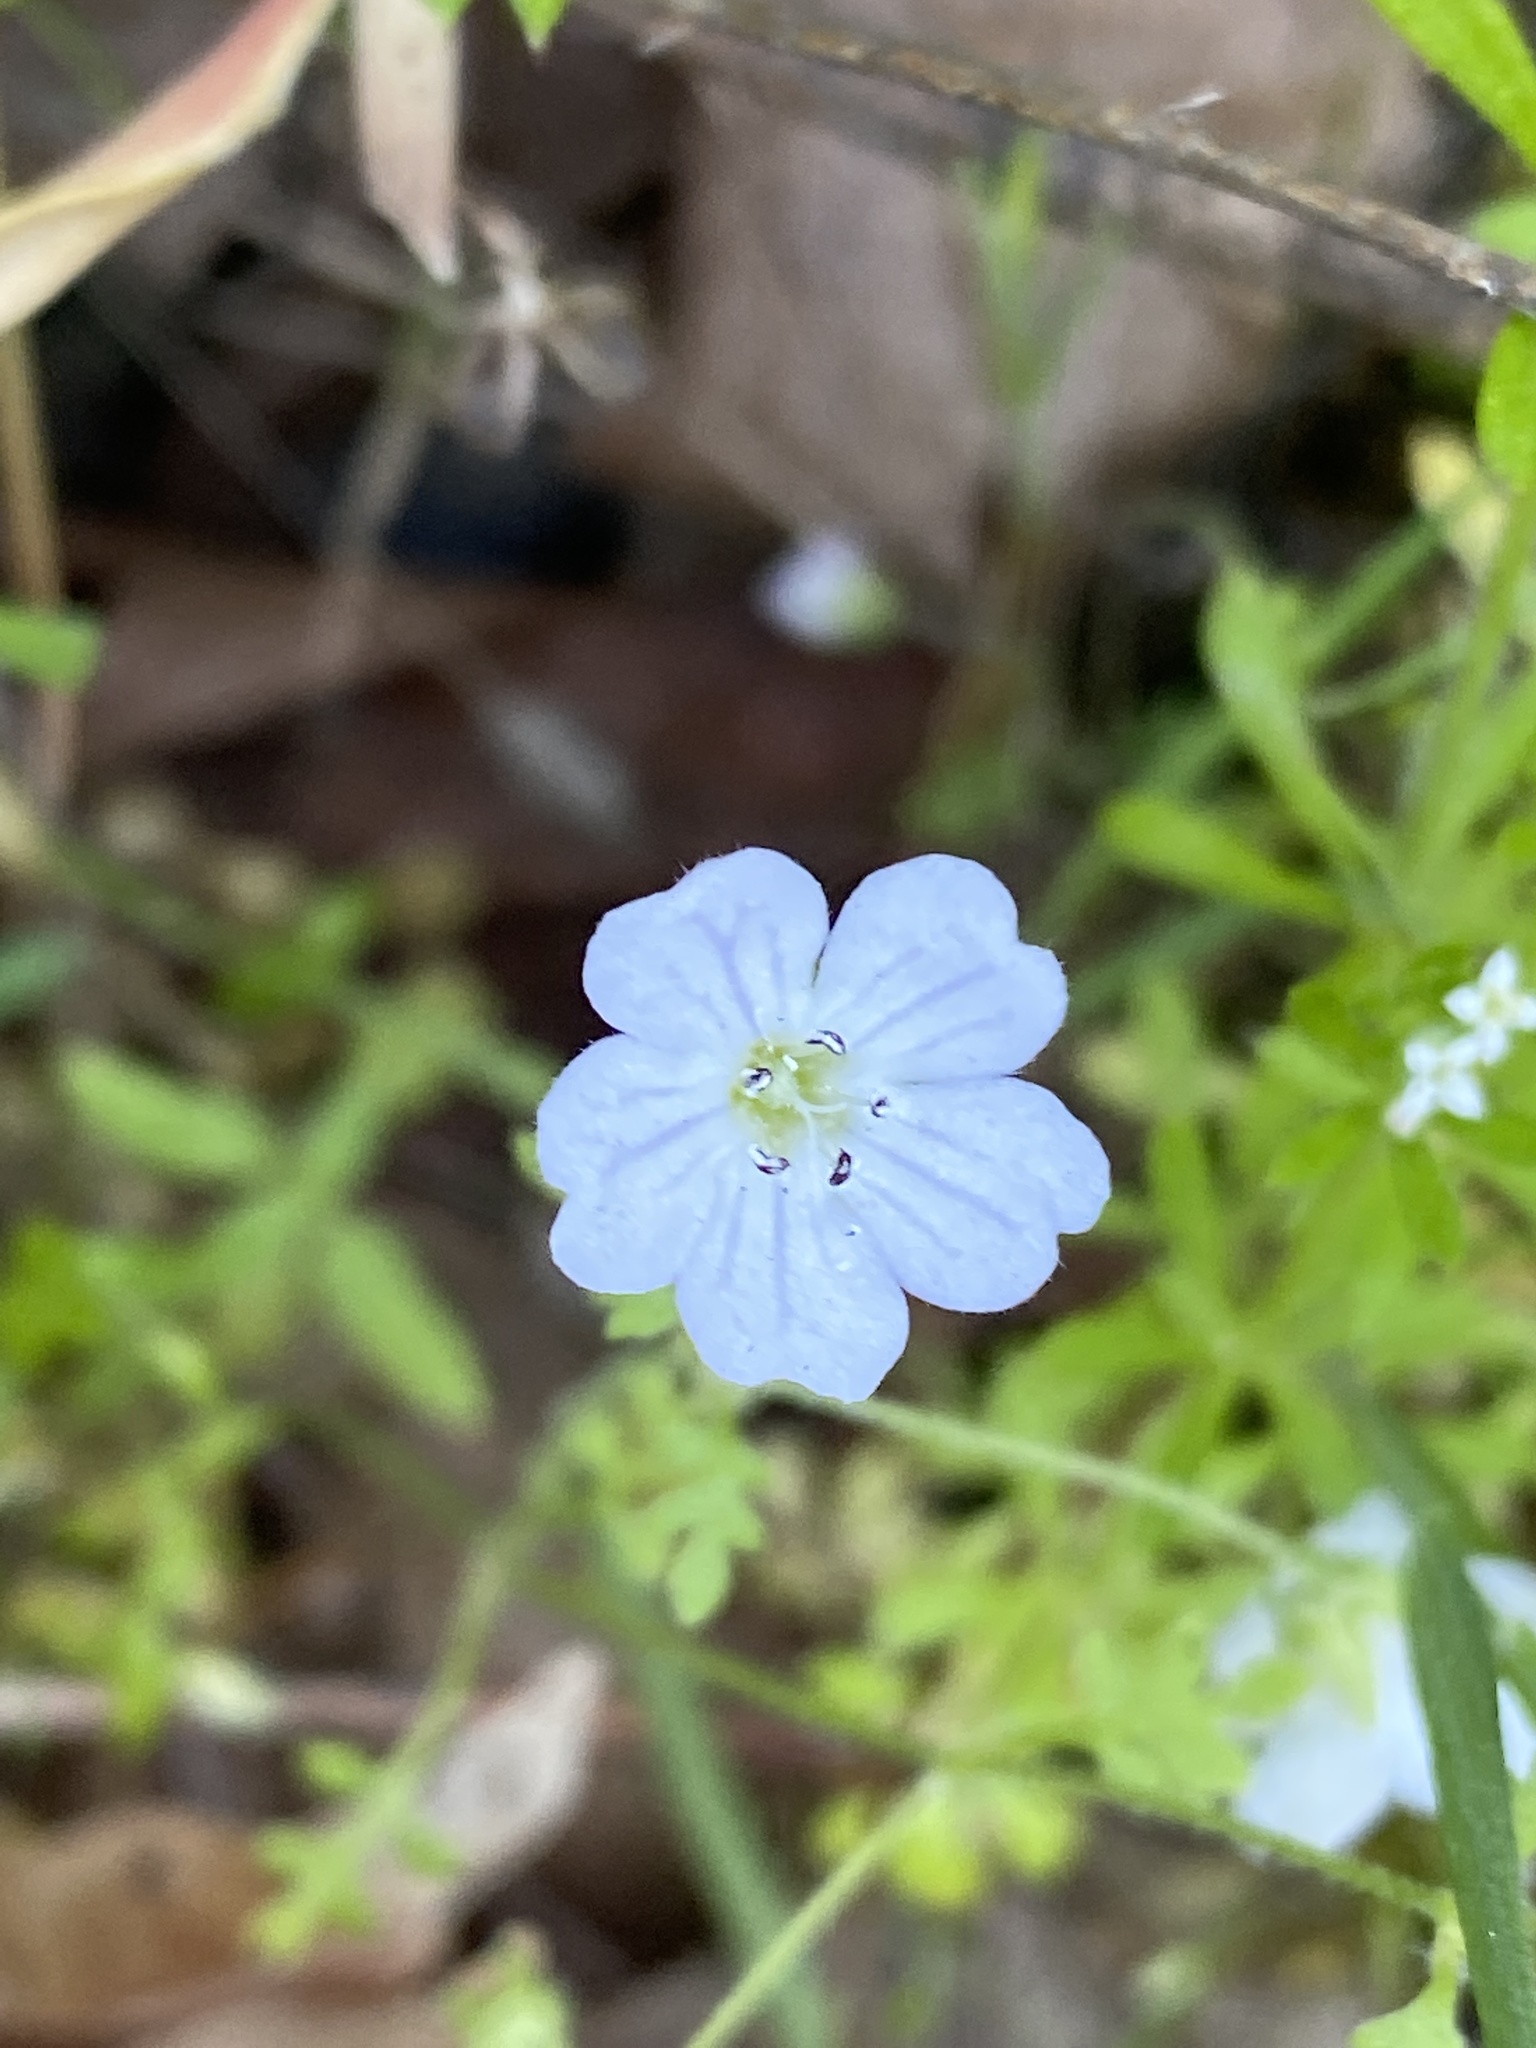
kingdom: Plantae
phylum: Tracheophyta
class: Magnoliopsida
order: Boraginales
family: Hydrophyllaceae
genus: Nemophila
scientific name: Nemophila heterophylla
